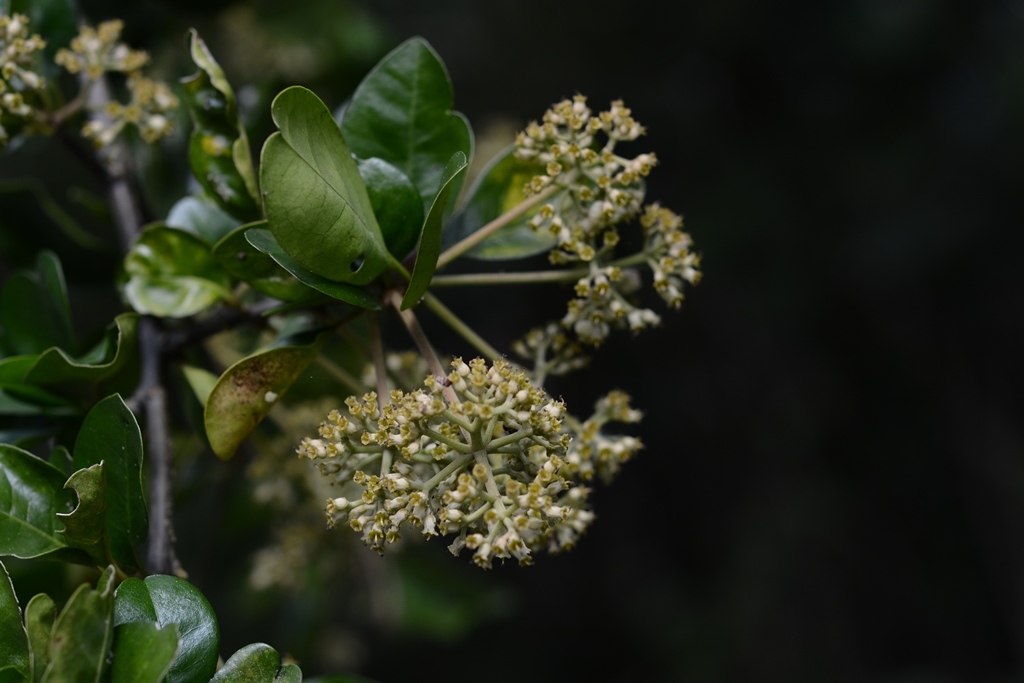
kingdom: Plantae
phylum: Tracheophyta
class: Magnoliopsida
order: Caryophyllales
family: Nyctaginaceae
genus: Pisonia
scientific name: Pisonia donnellsmithii
